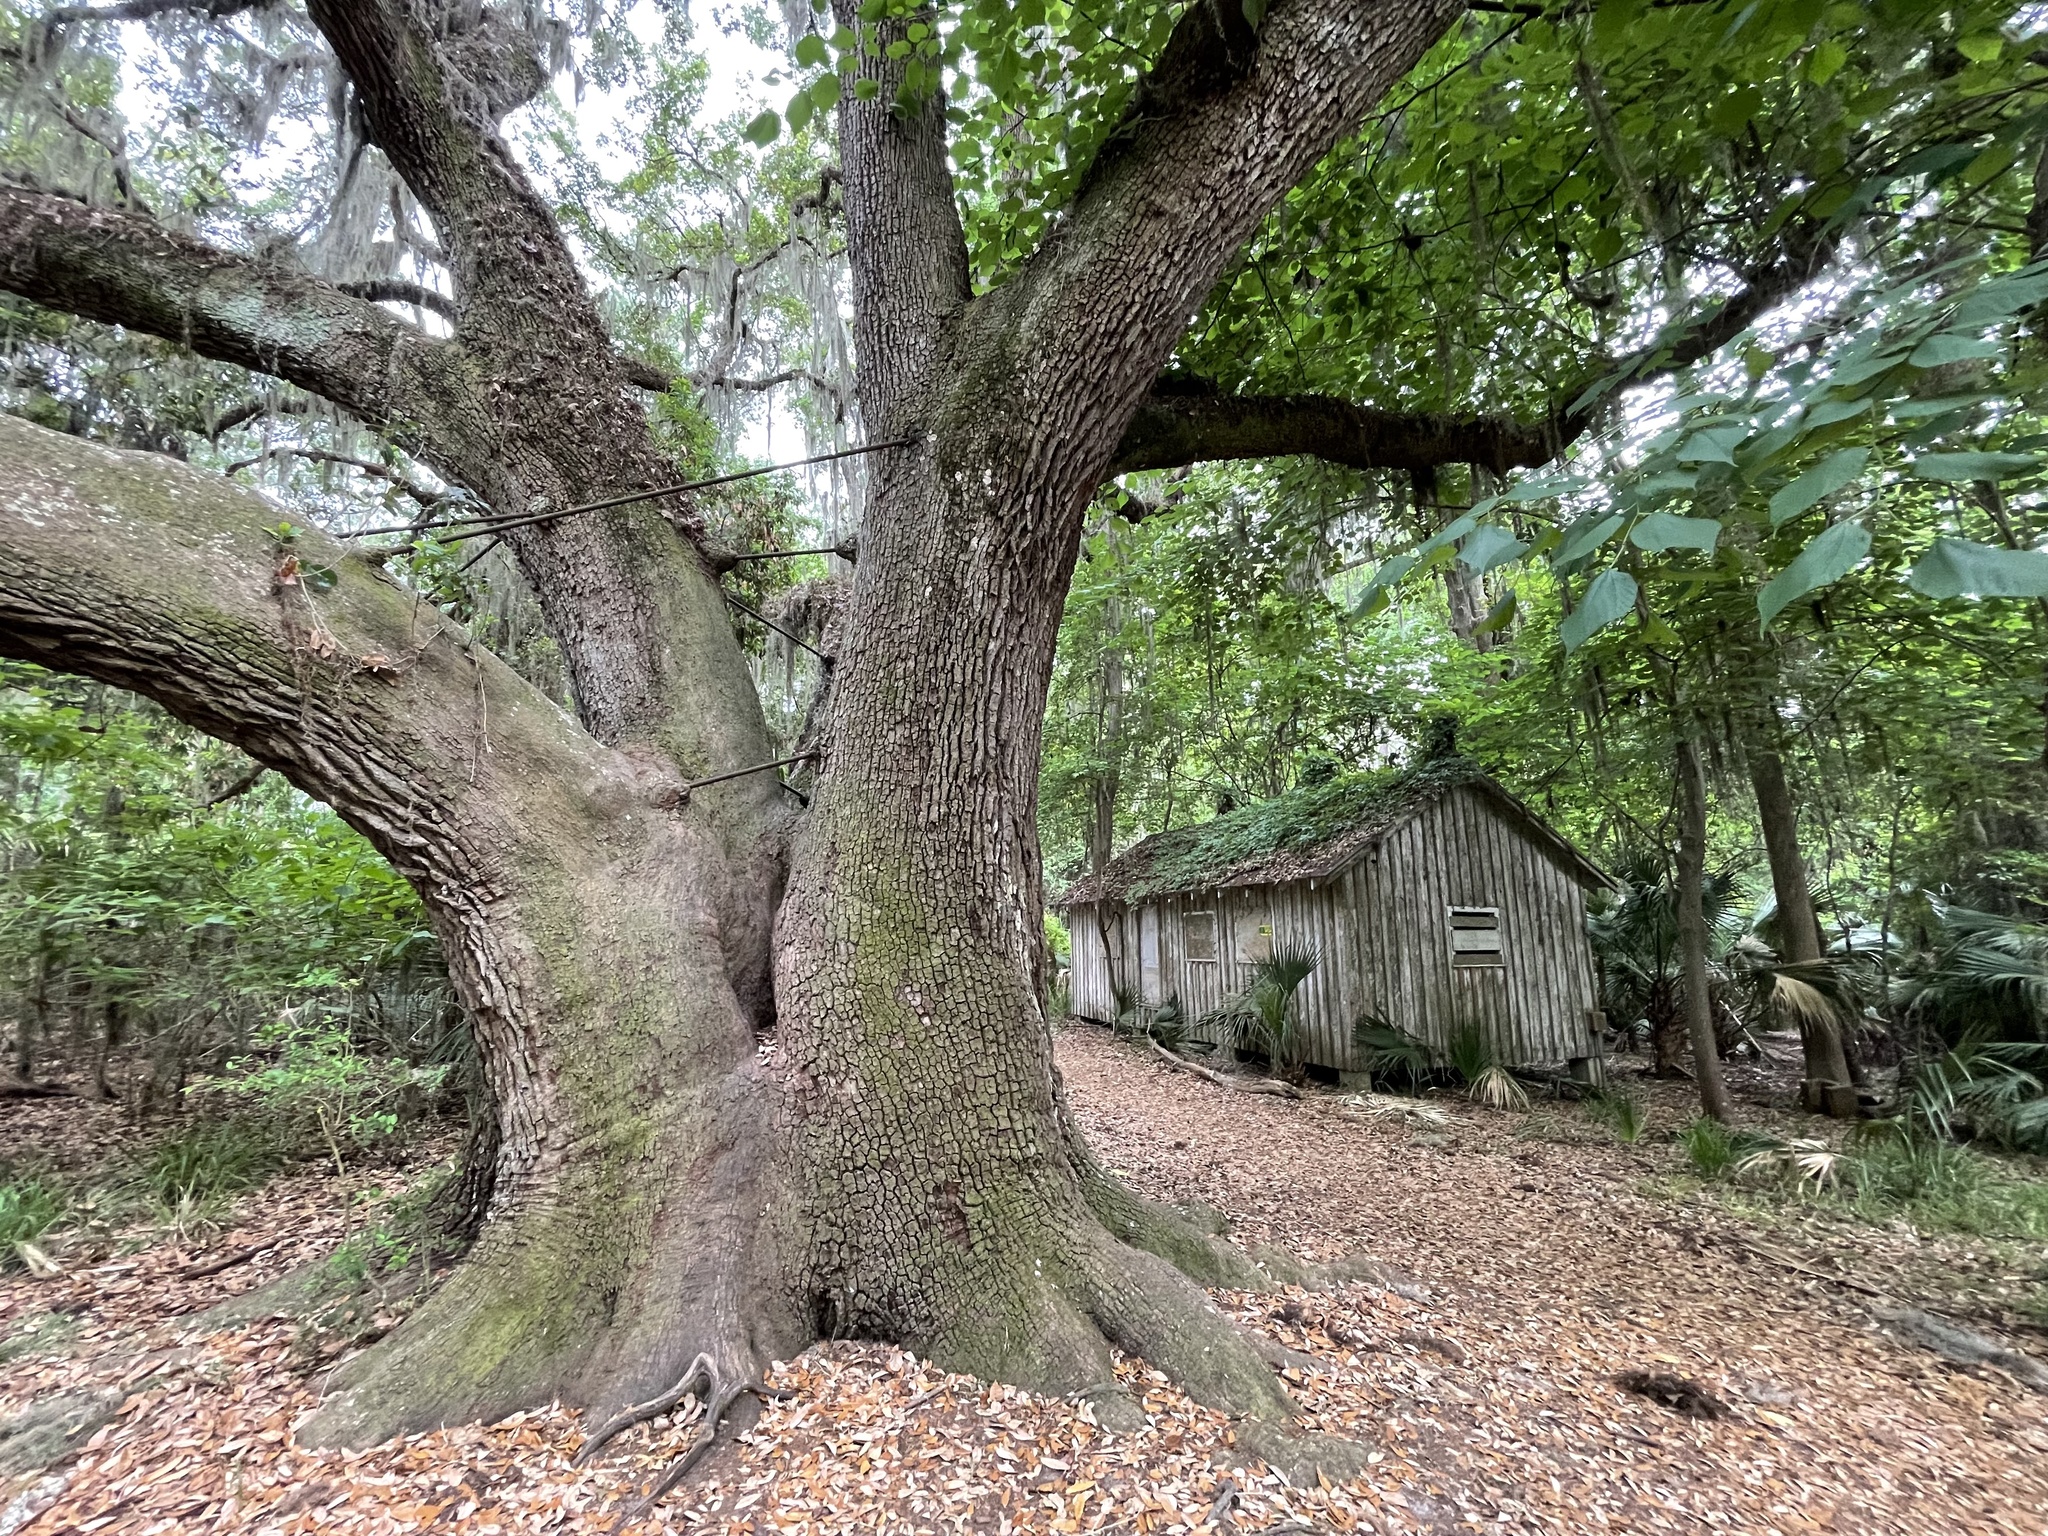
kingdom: Plantae
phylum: Tracheophyta
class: Magnoliopsida
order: Fagales
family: Fagaceae
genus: Quercus
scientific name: Quercus virginiana
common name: Southern live oak
